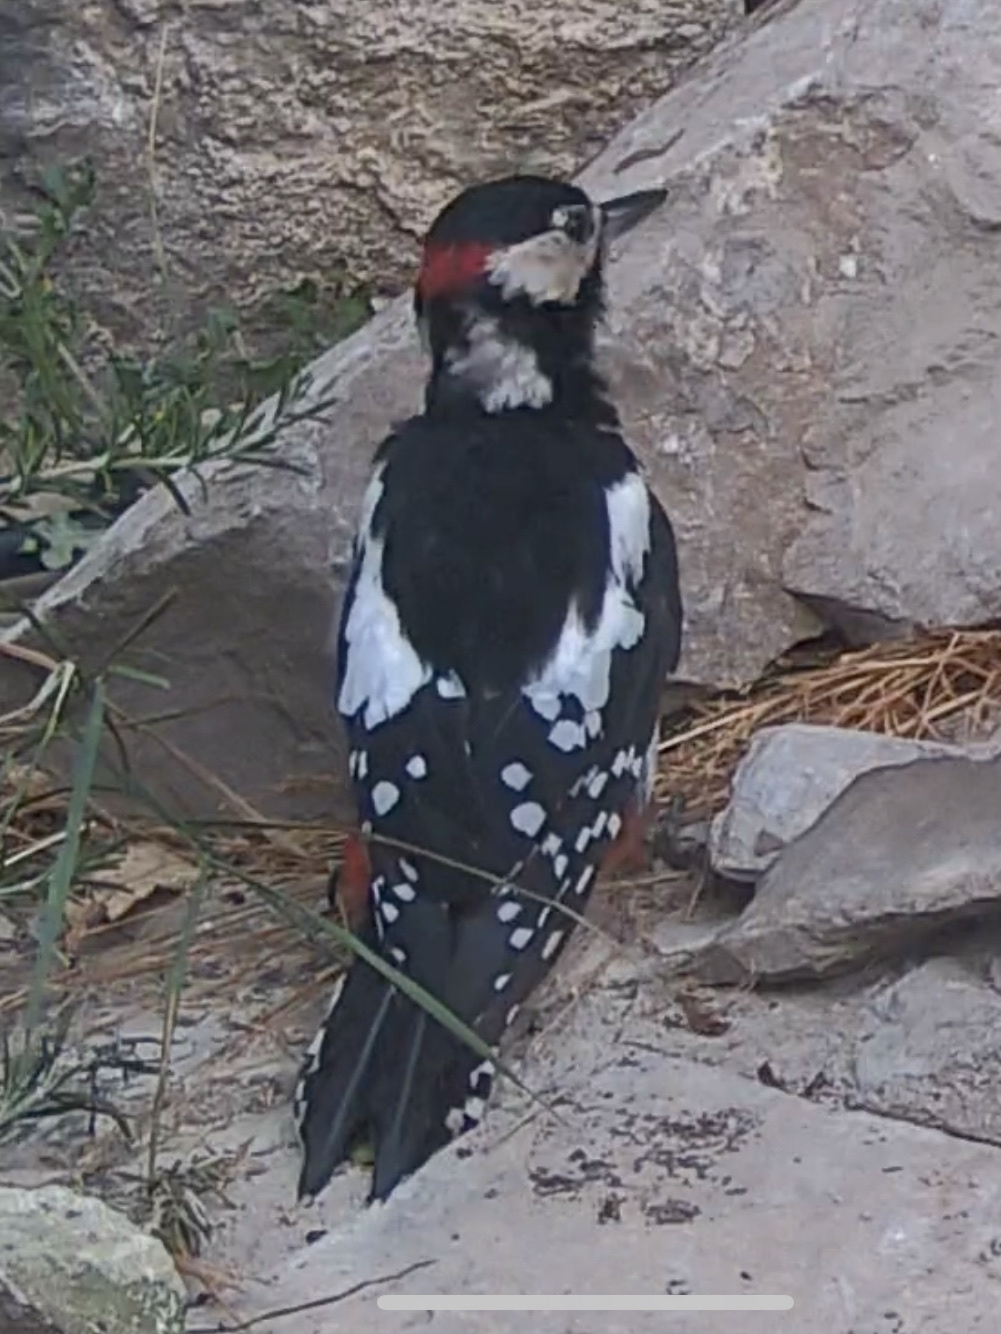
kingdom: Animalia
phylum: Chordata
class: Aves
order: Piciformes
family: Picidae
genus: Dendrocopos
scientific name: Dendrocopos major
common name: Great spotted woodpecker
